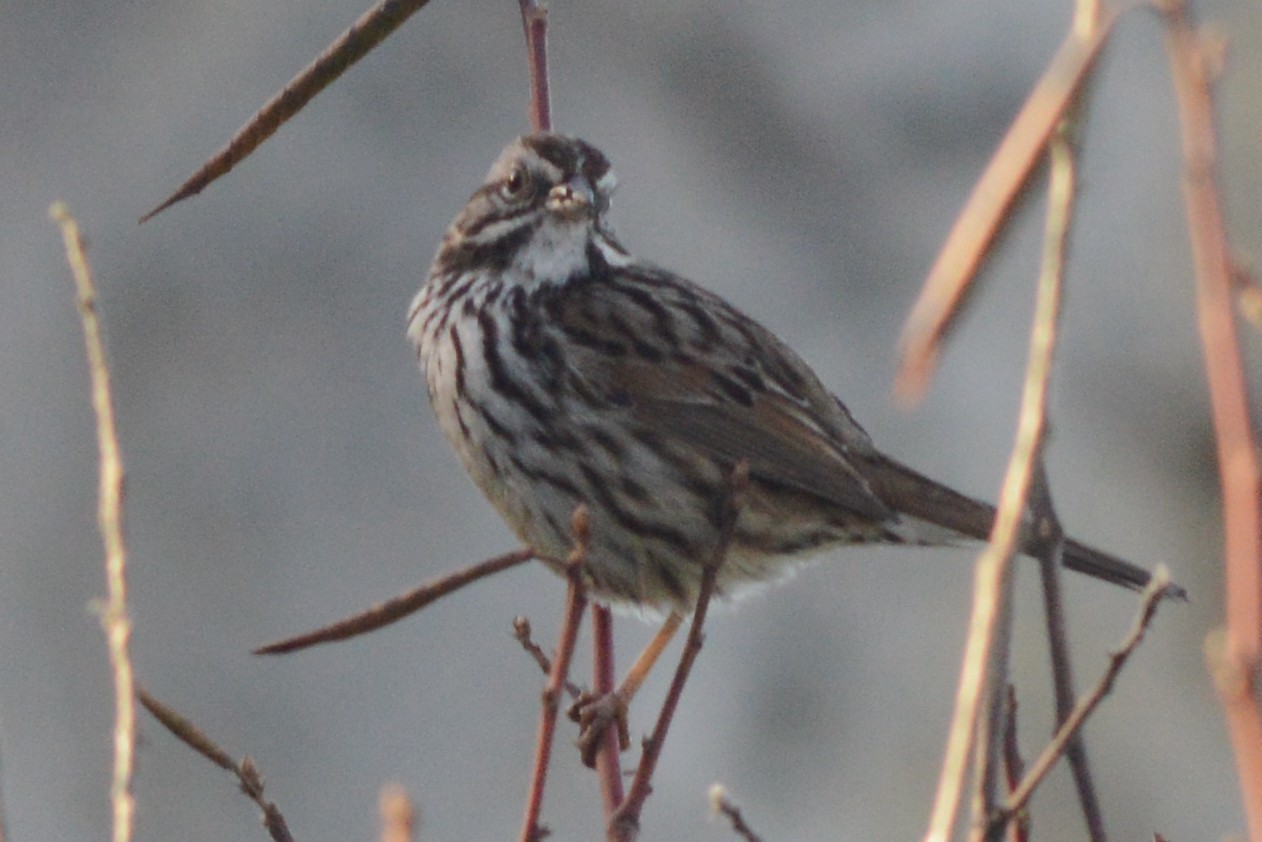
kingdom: Animalia
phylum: Chordata
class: Aves
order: Passeriformes
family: Passerellidae
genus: Melospiza
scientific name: Melospiza melodia
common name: Song sparrow
